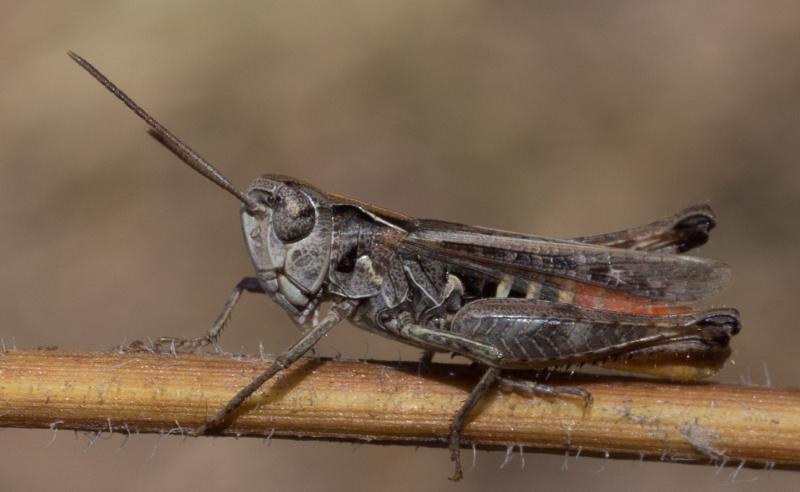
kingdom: Animalia
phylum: Arthropoda
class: Insecta
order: Orthoptera
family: Acrididae
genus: Omocestus
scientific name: Omocestus haemorrhoidalis
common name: Orange-tipped grasshopper
